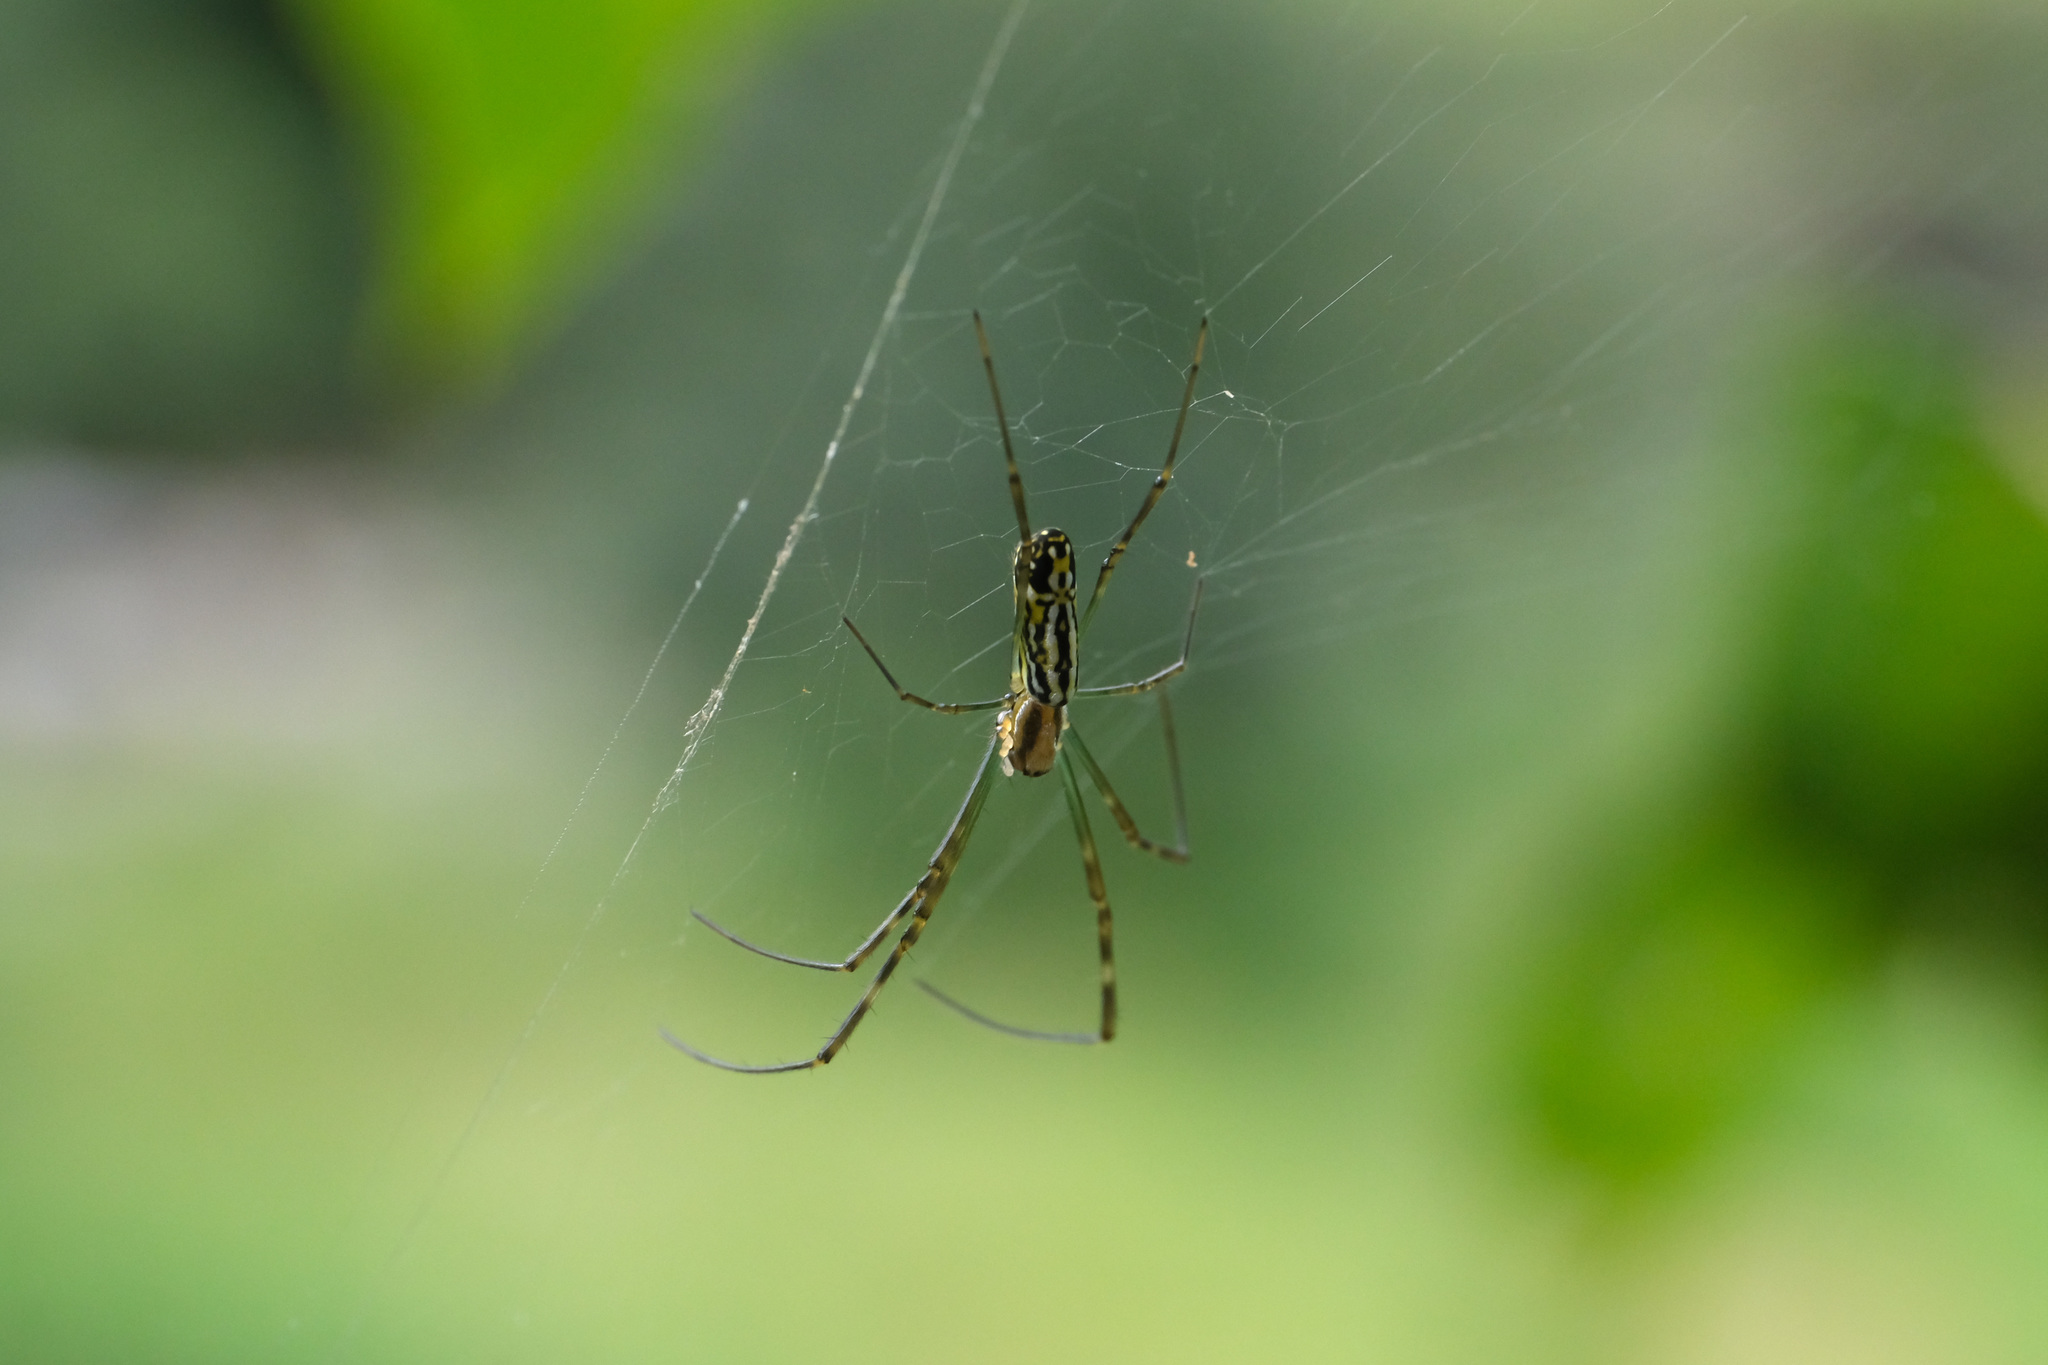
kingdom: Animalia
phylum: Arthropoda
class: Arachnida
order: Araneae
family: Araneidae
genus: Trichonephila
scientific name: Trichonephila clavata
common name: Jorō spider
